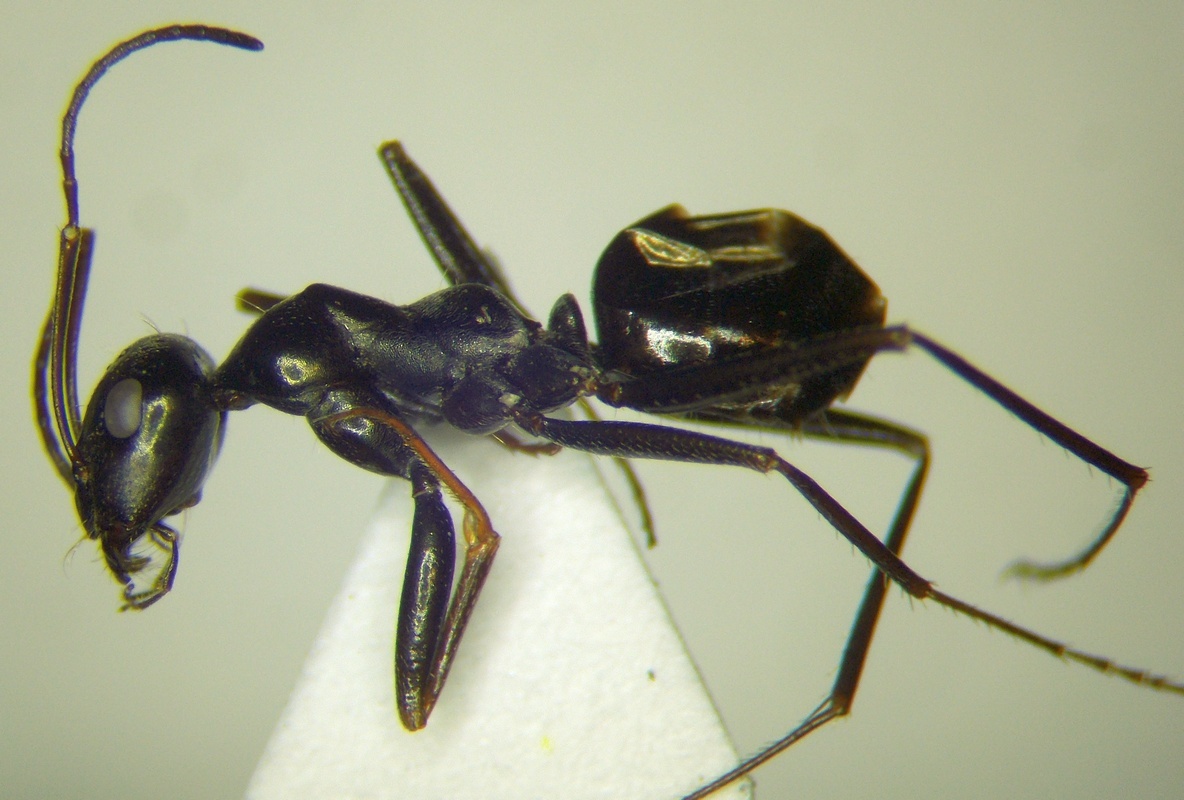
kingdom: Animalia
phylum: Arthropoda
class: Insecta
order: Hymenoptera
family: Formicidae
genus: Cataglyphis
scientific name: Cataglyphis aenescens
